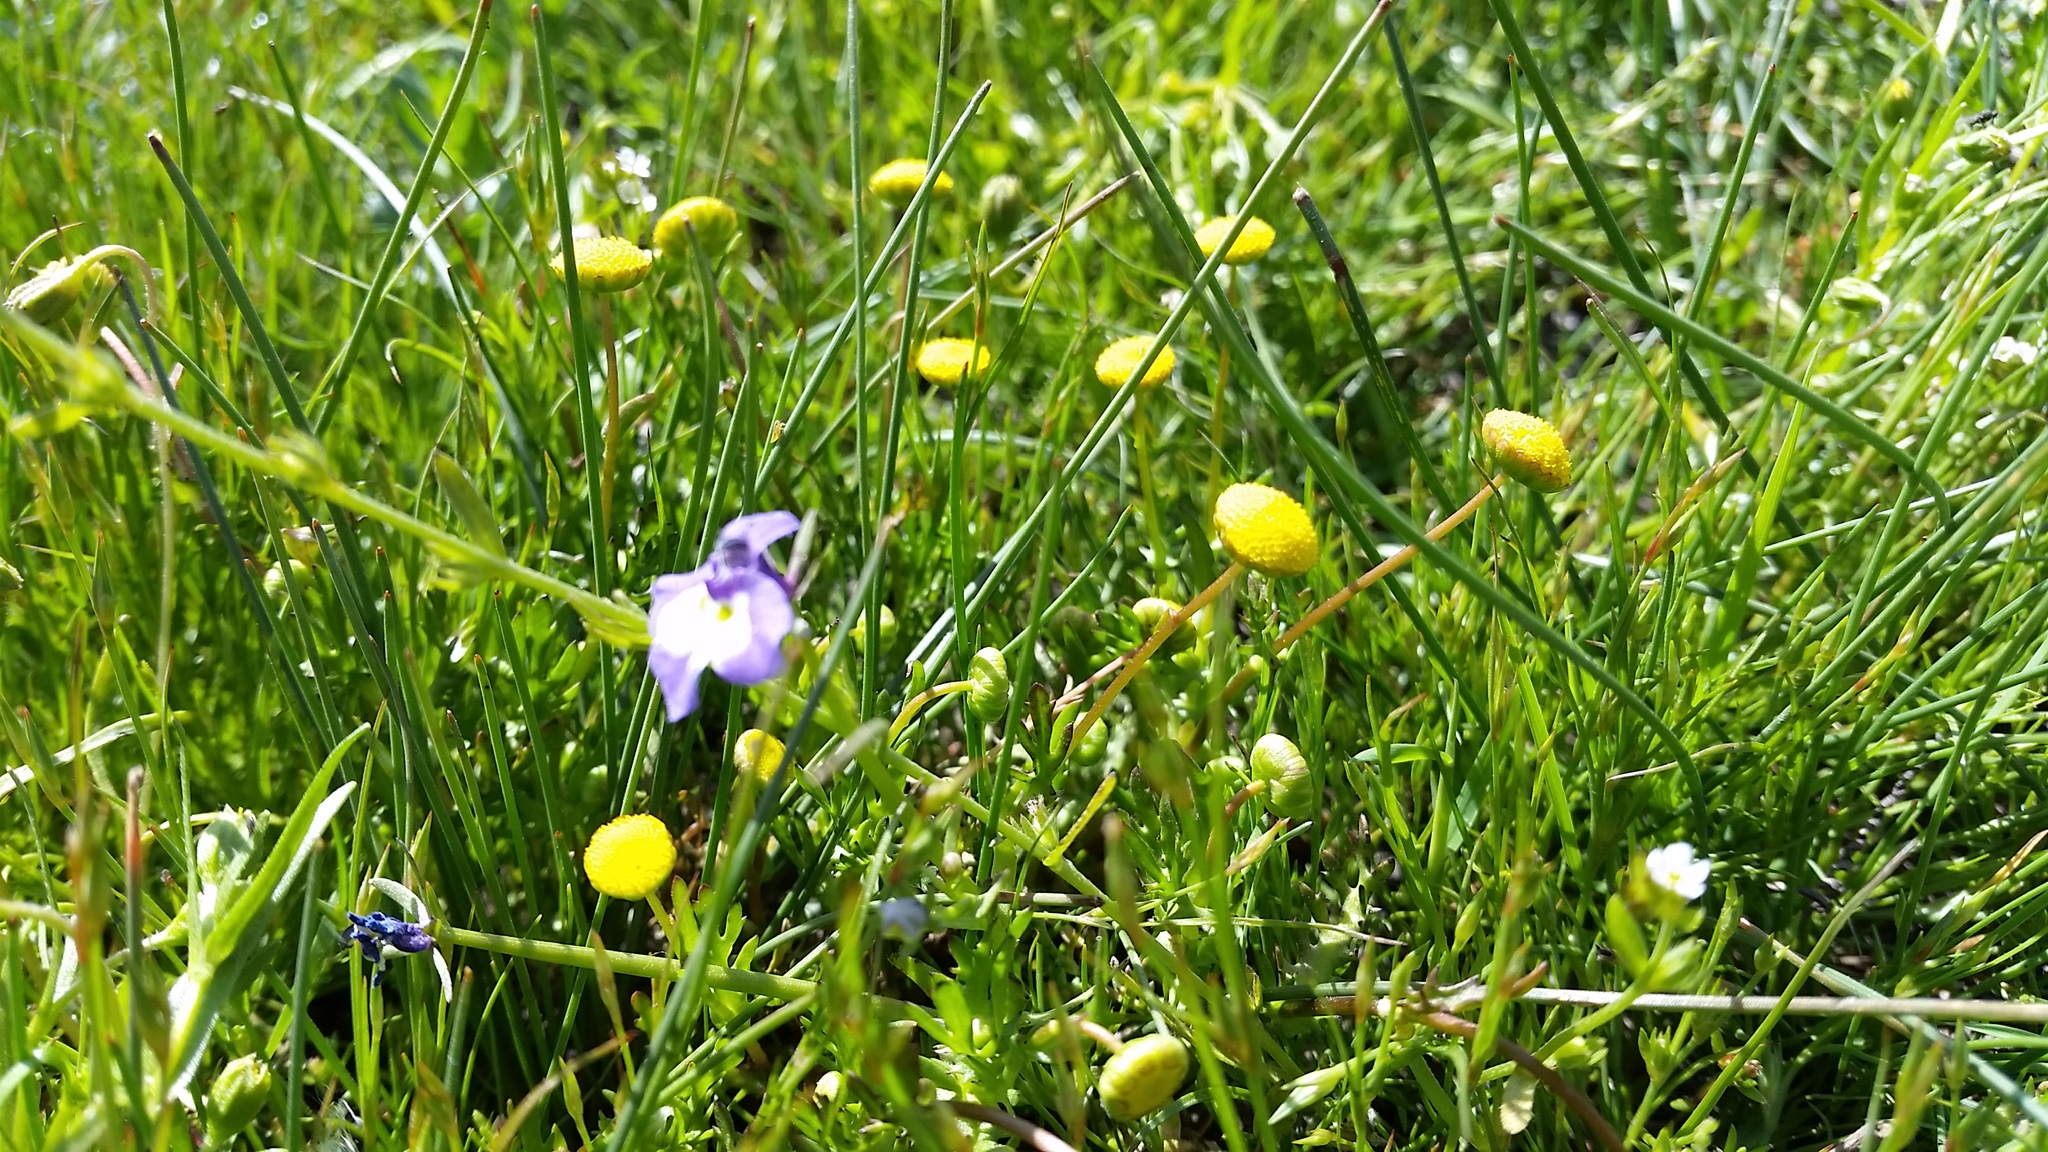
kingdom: Plantae
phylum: Tracheophyta
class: Magnoliopsida
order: Asterales
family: Asteraceae
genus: Cotula
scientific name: Cotula coronopifolia
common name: Buttonweed
